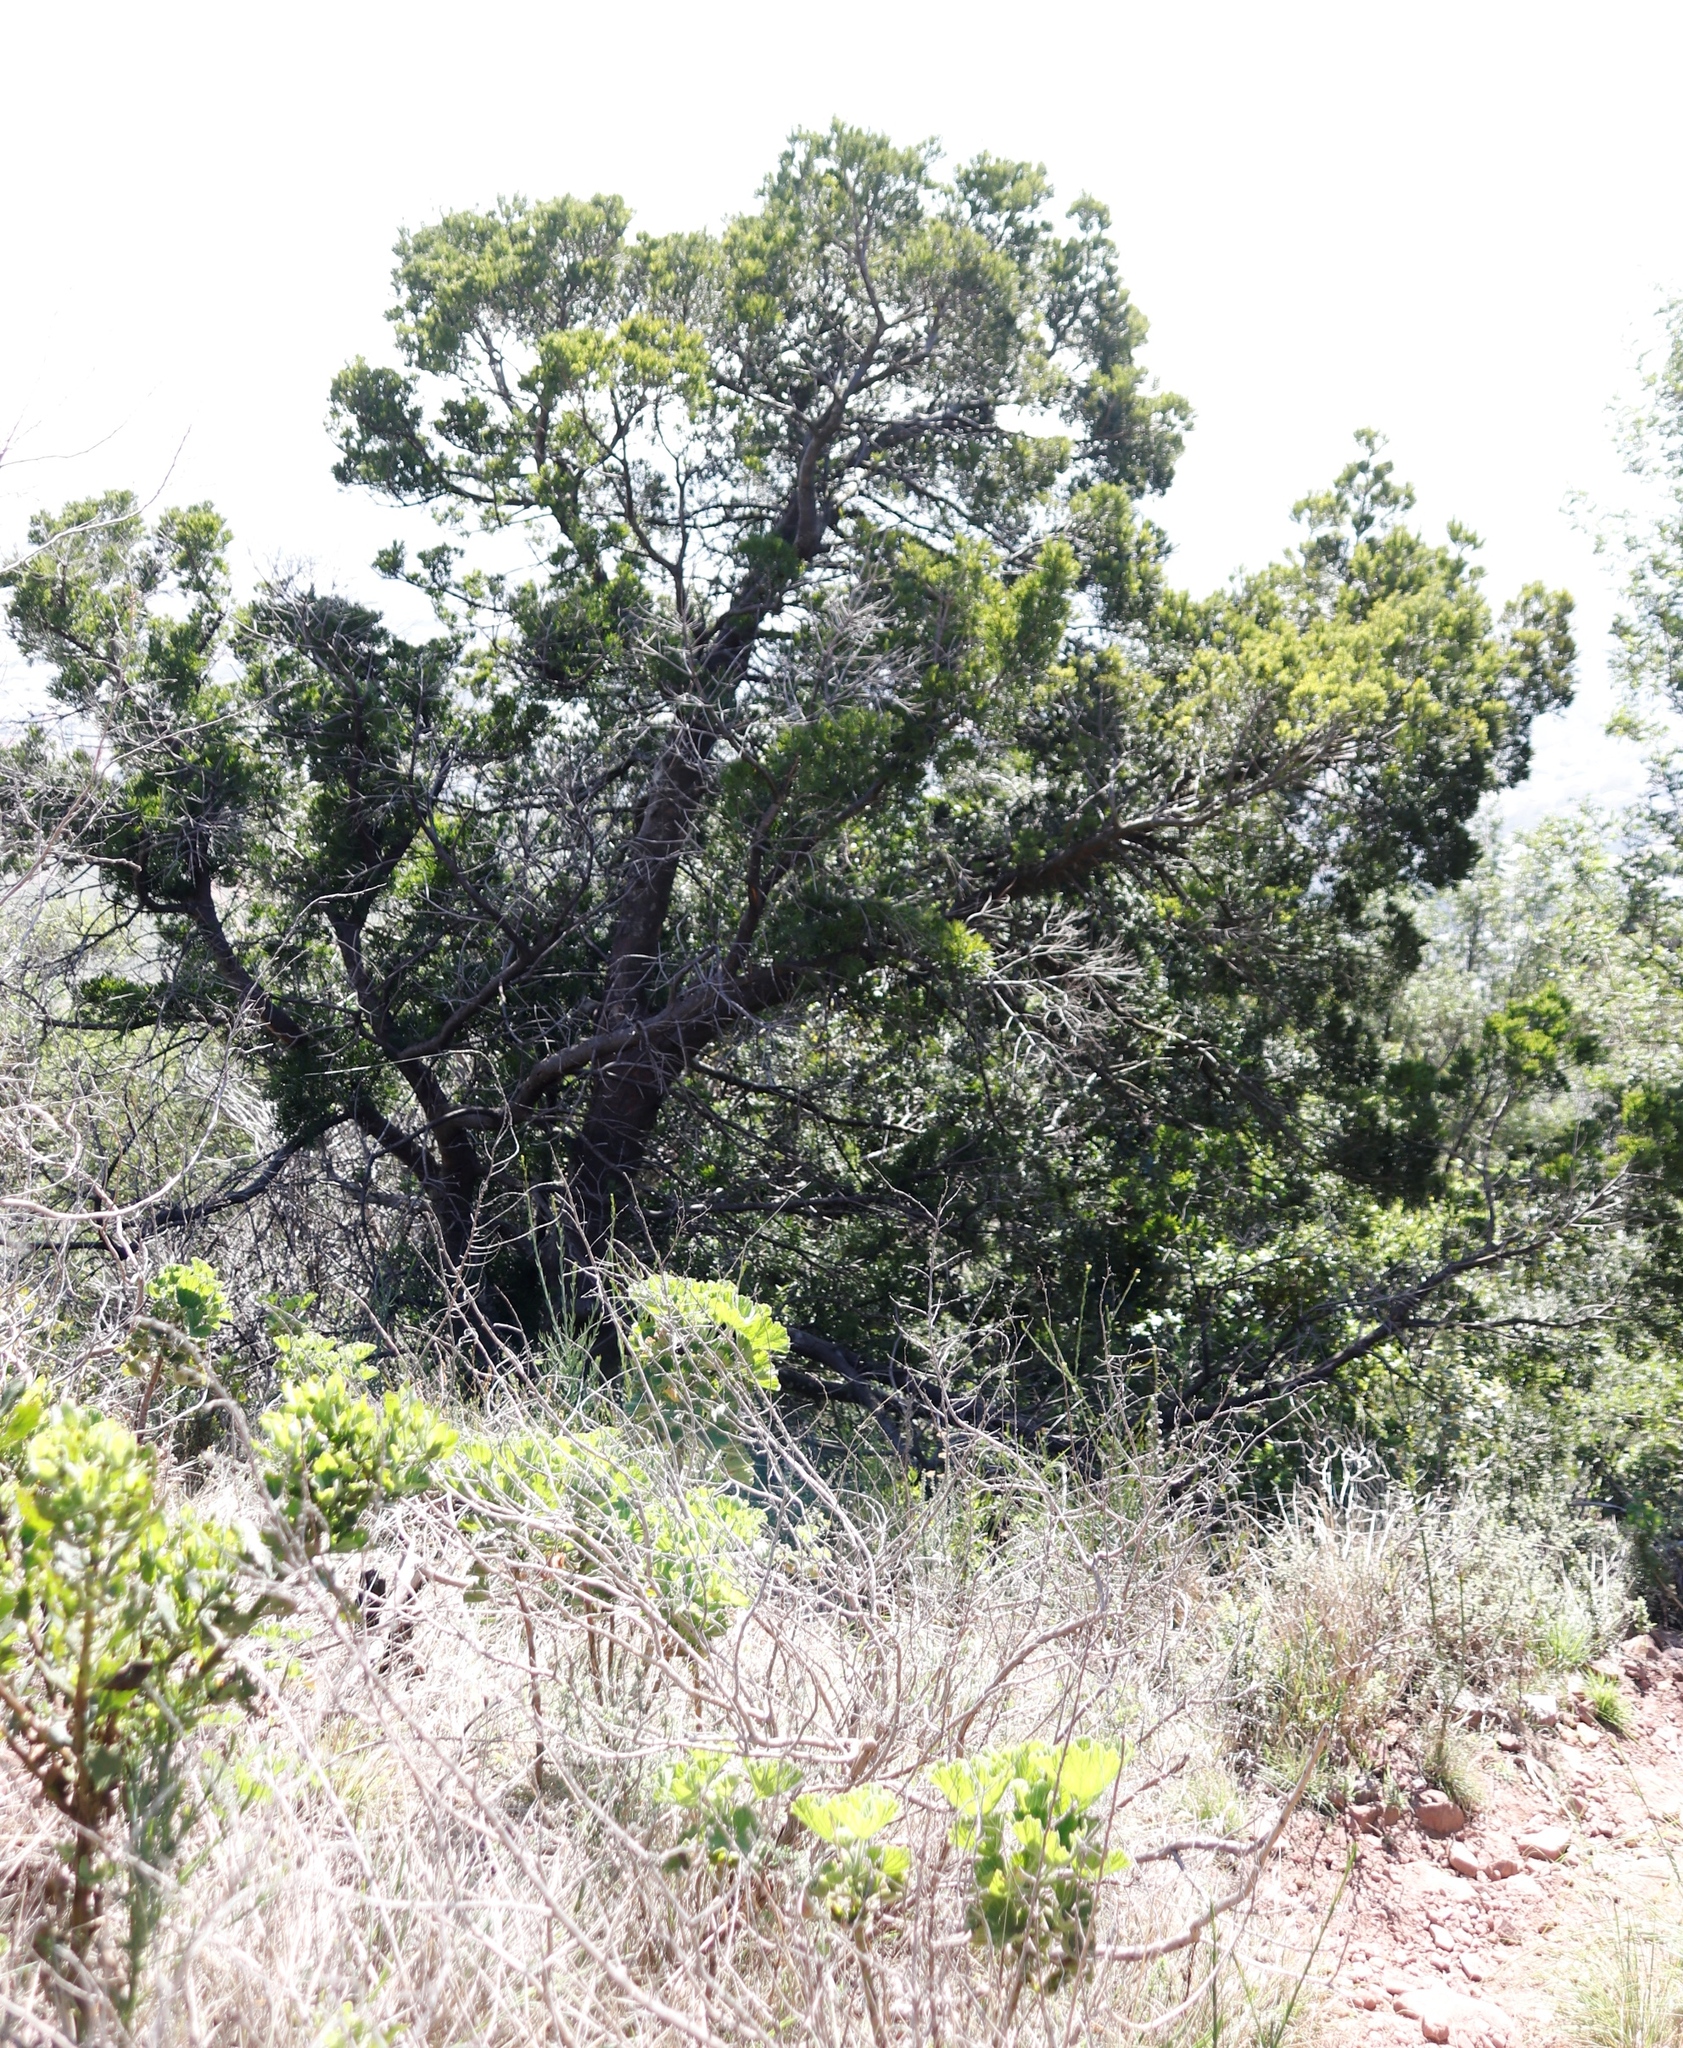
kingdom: Plantae
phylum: Tracheophyta
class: Pinopsida
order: Pinales
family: Podocarpaceae
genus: Afrocarpus
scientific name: Afrocarpus falcatus
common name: Bastard yellowwood
